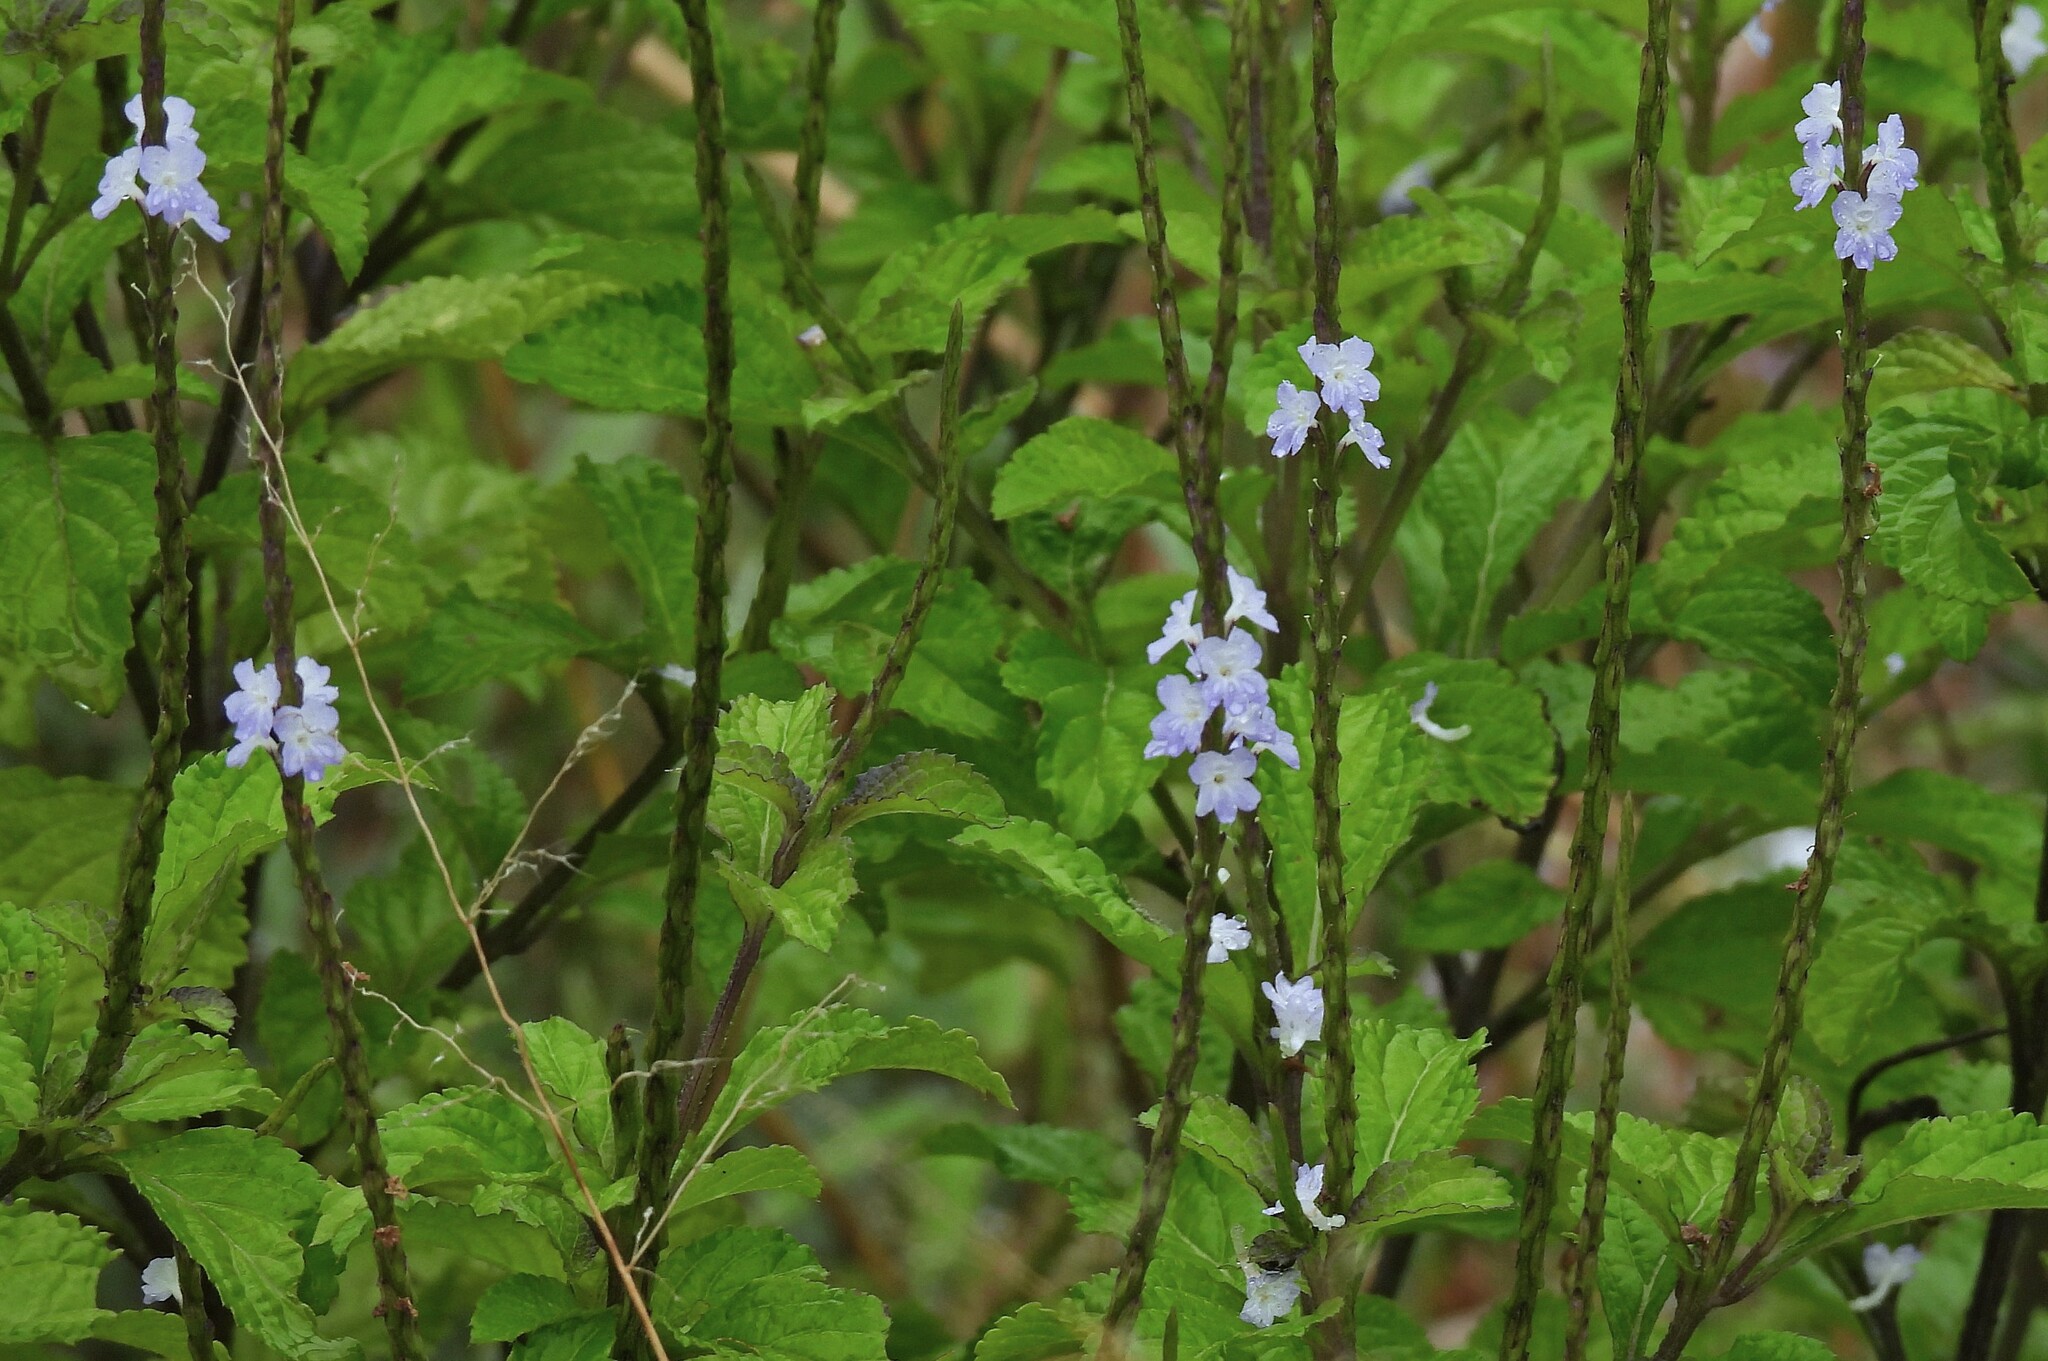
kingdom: Plantae
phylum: Tracheophyta
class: Magnoliopsida
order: Lamiales
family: Verbenaceae
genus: Stachytarpheta
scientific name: Stachytarpheta cayennensis
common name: Cayenne porterweed
